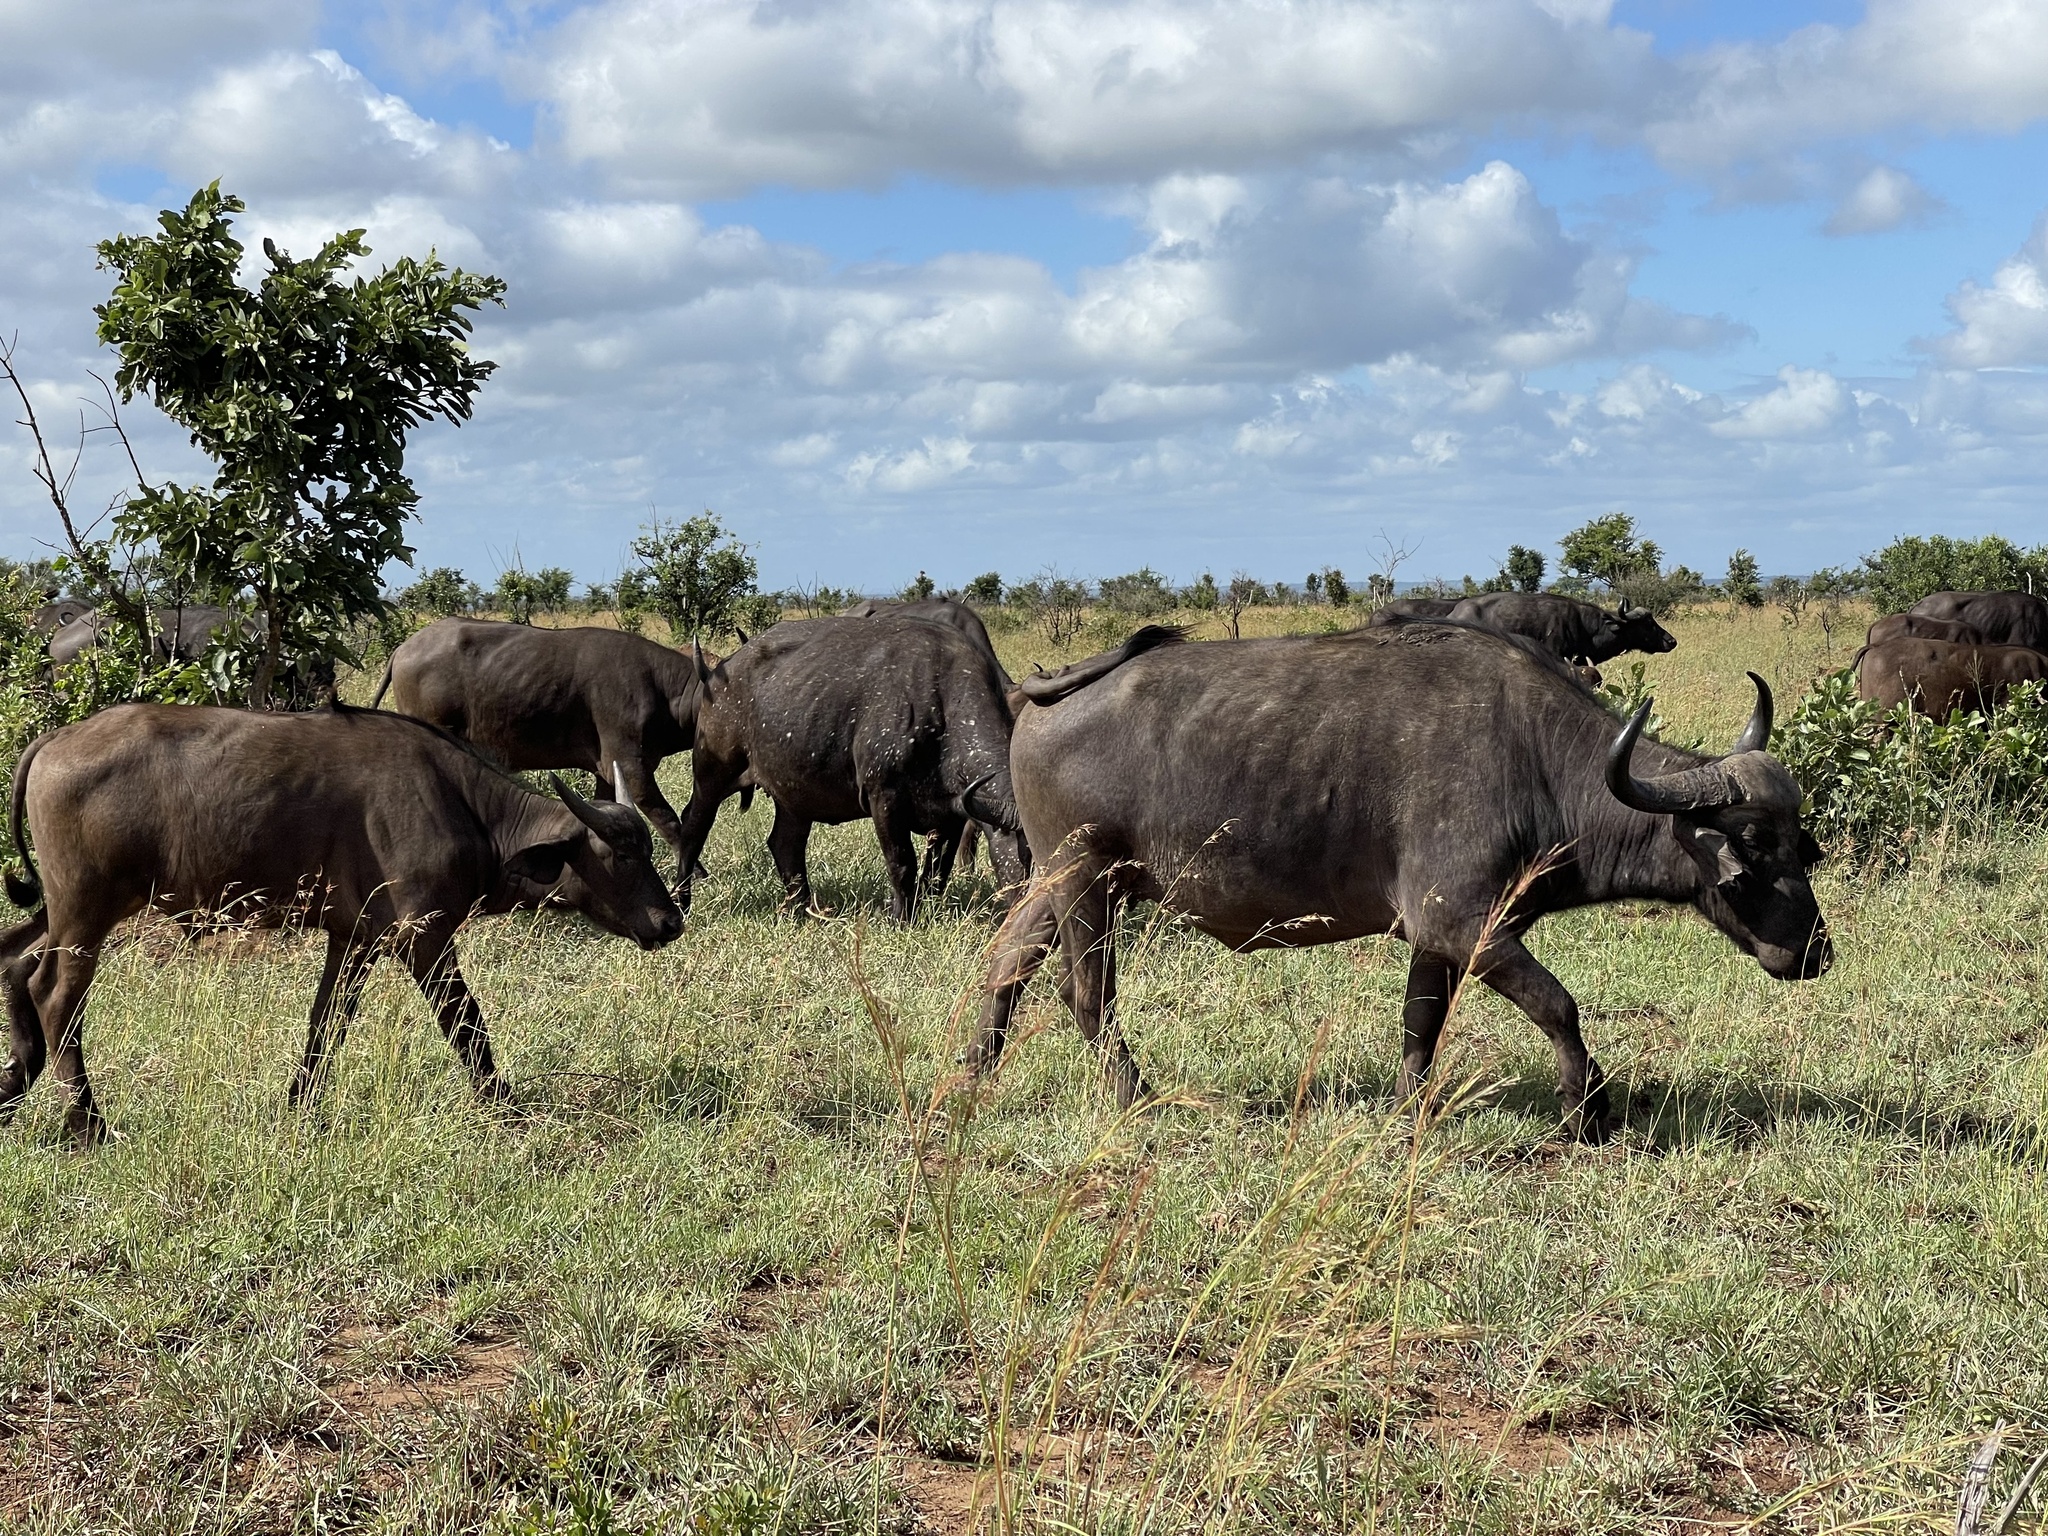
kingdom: Animalia
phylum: Chordata
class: Mammalia
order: Artiodactyla
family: Bovidae
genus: Syncerus
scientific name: Syncerus caffer
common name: African buffalo
